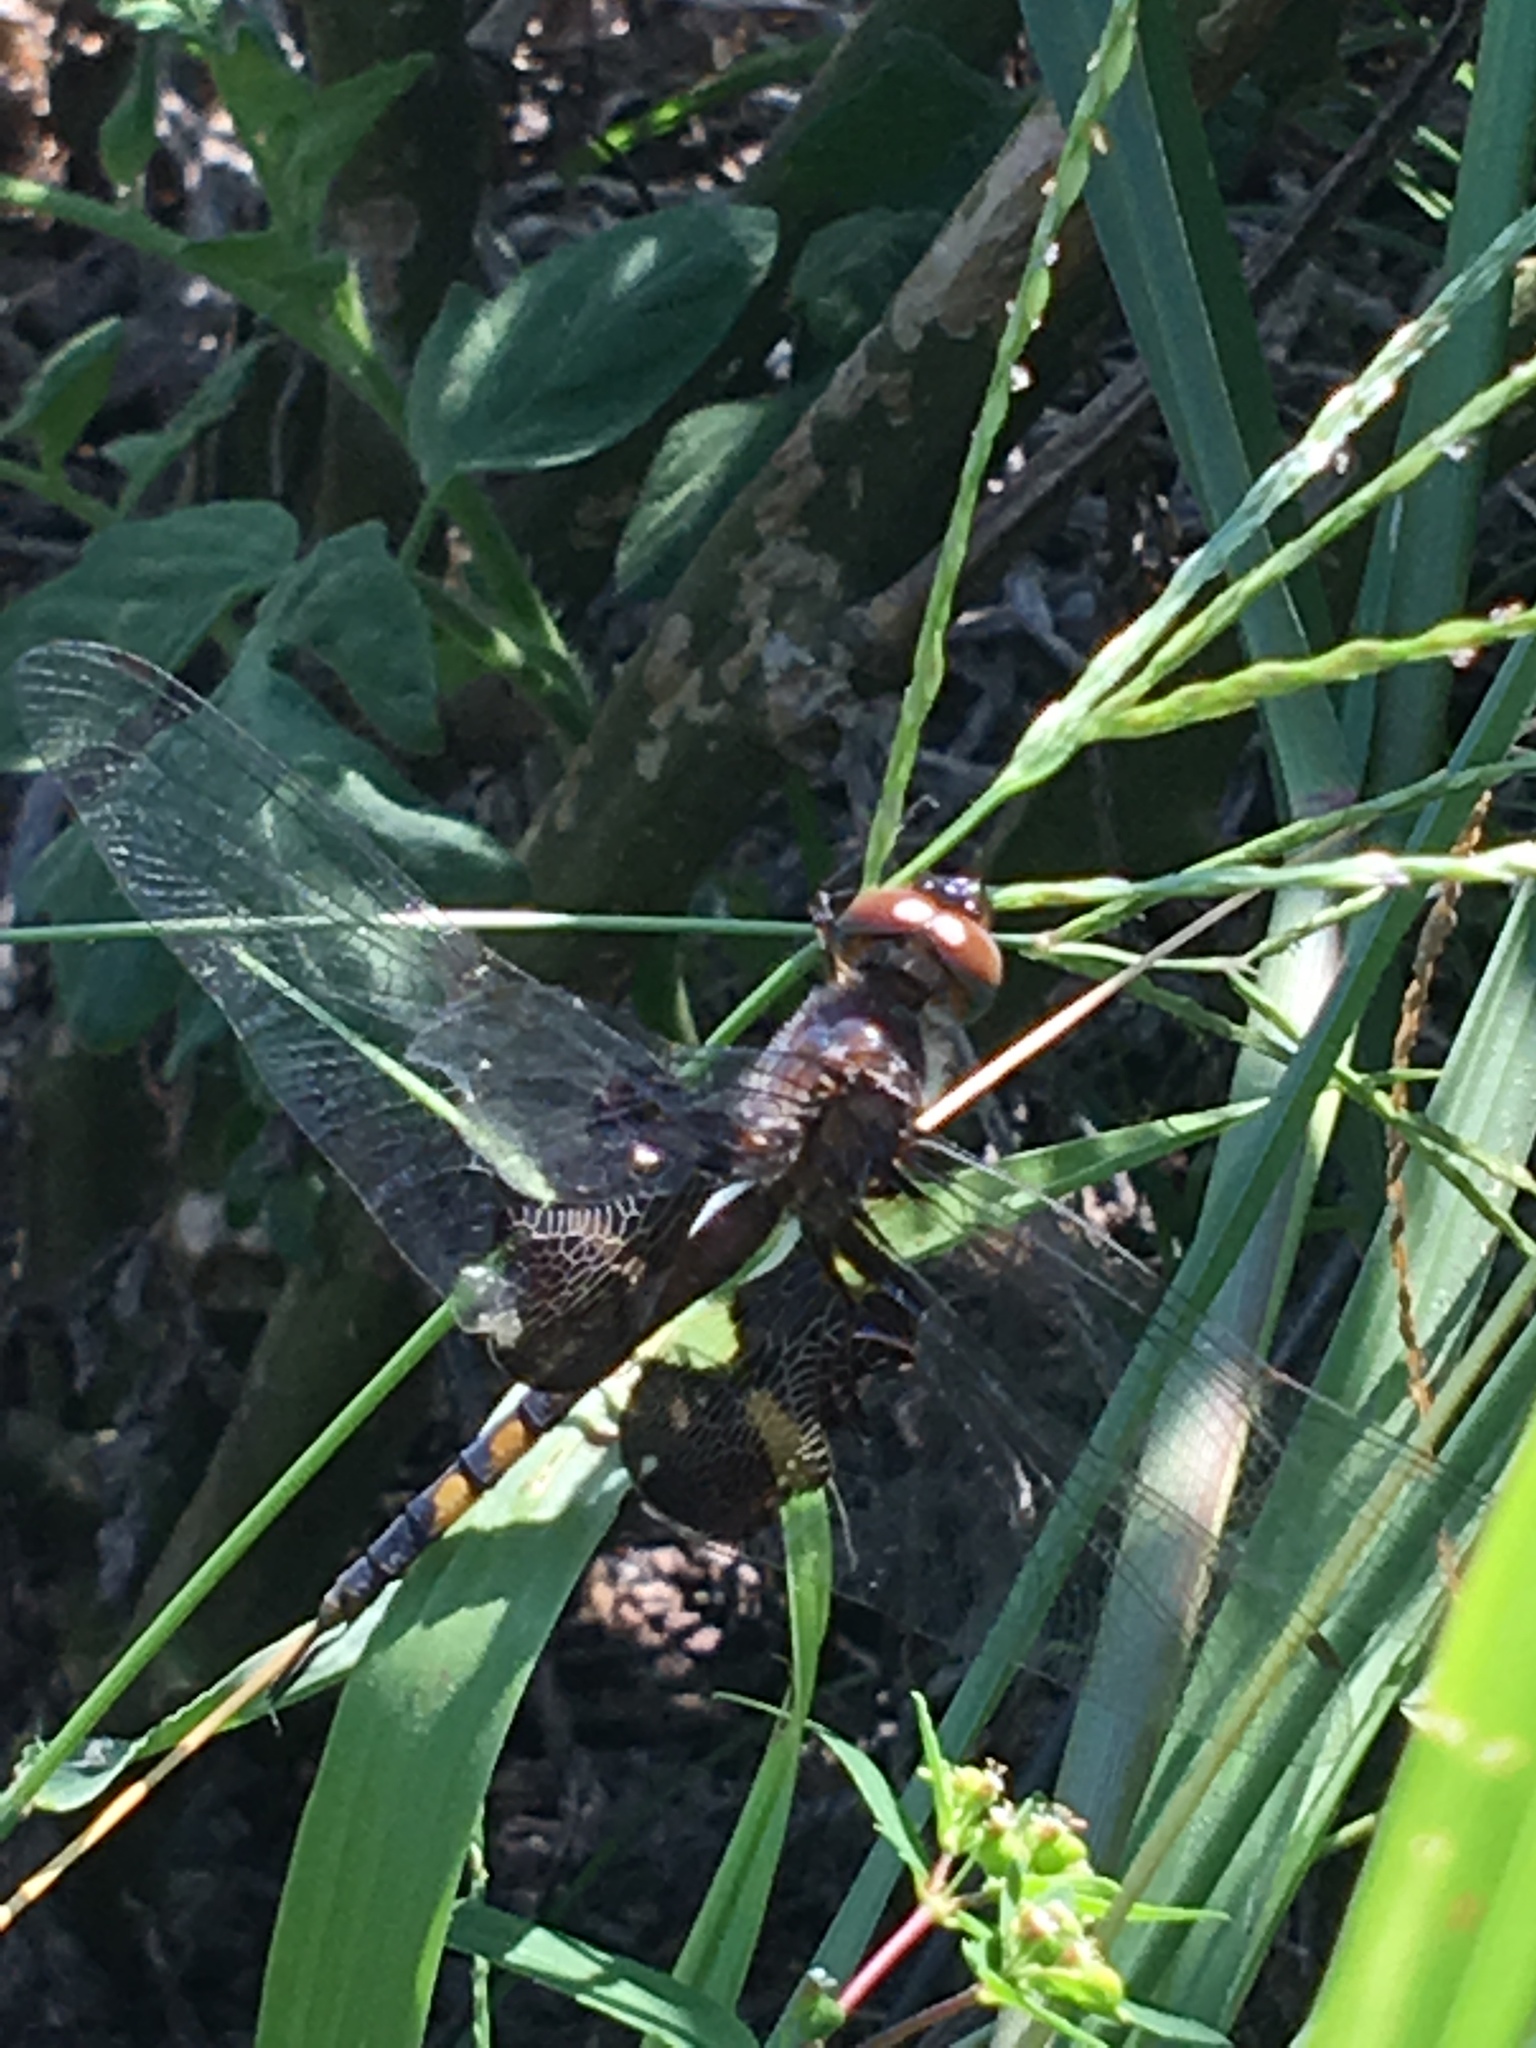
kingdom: Animalia
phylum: Arthropoda
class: Insecta
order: Odonata
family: Libellulidae
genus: Tramea
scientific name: Tramea lacerata
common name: Black saddlebags
